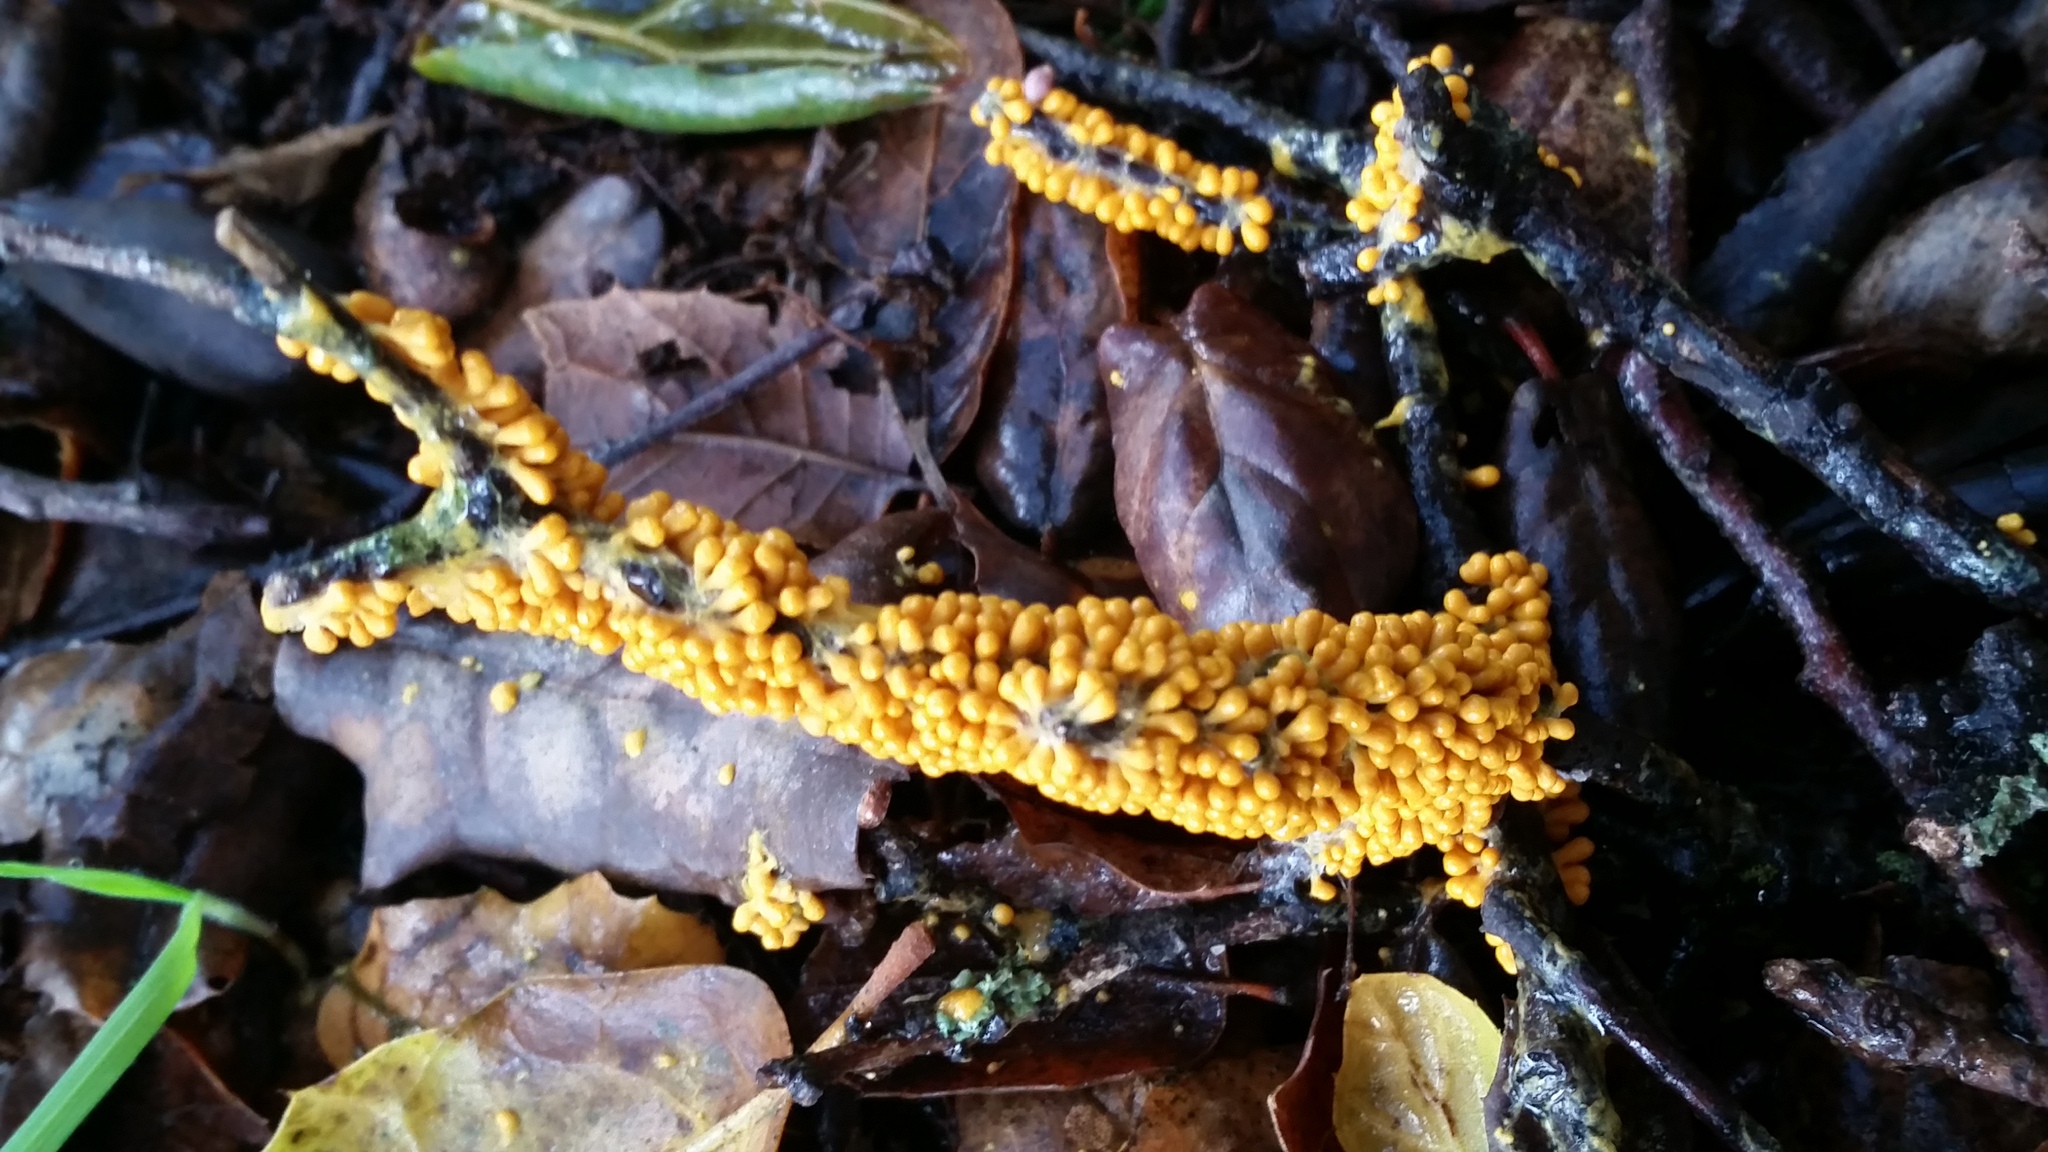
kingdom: Protozoa
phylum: Mycetozoa
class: Myxomycetes
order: Physarales
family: Physaraceae
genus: Leocarpus
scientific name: Leocarpus fragilis
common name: Insect-egg slime
